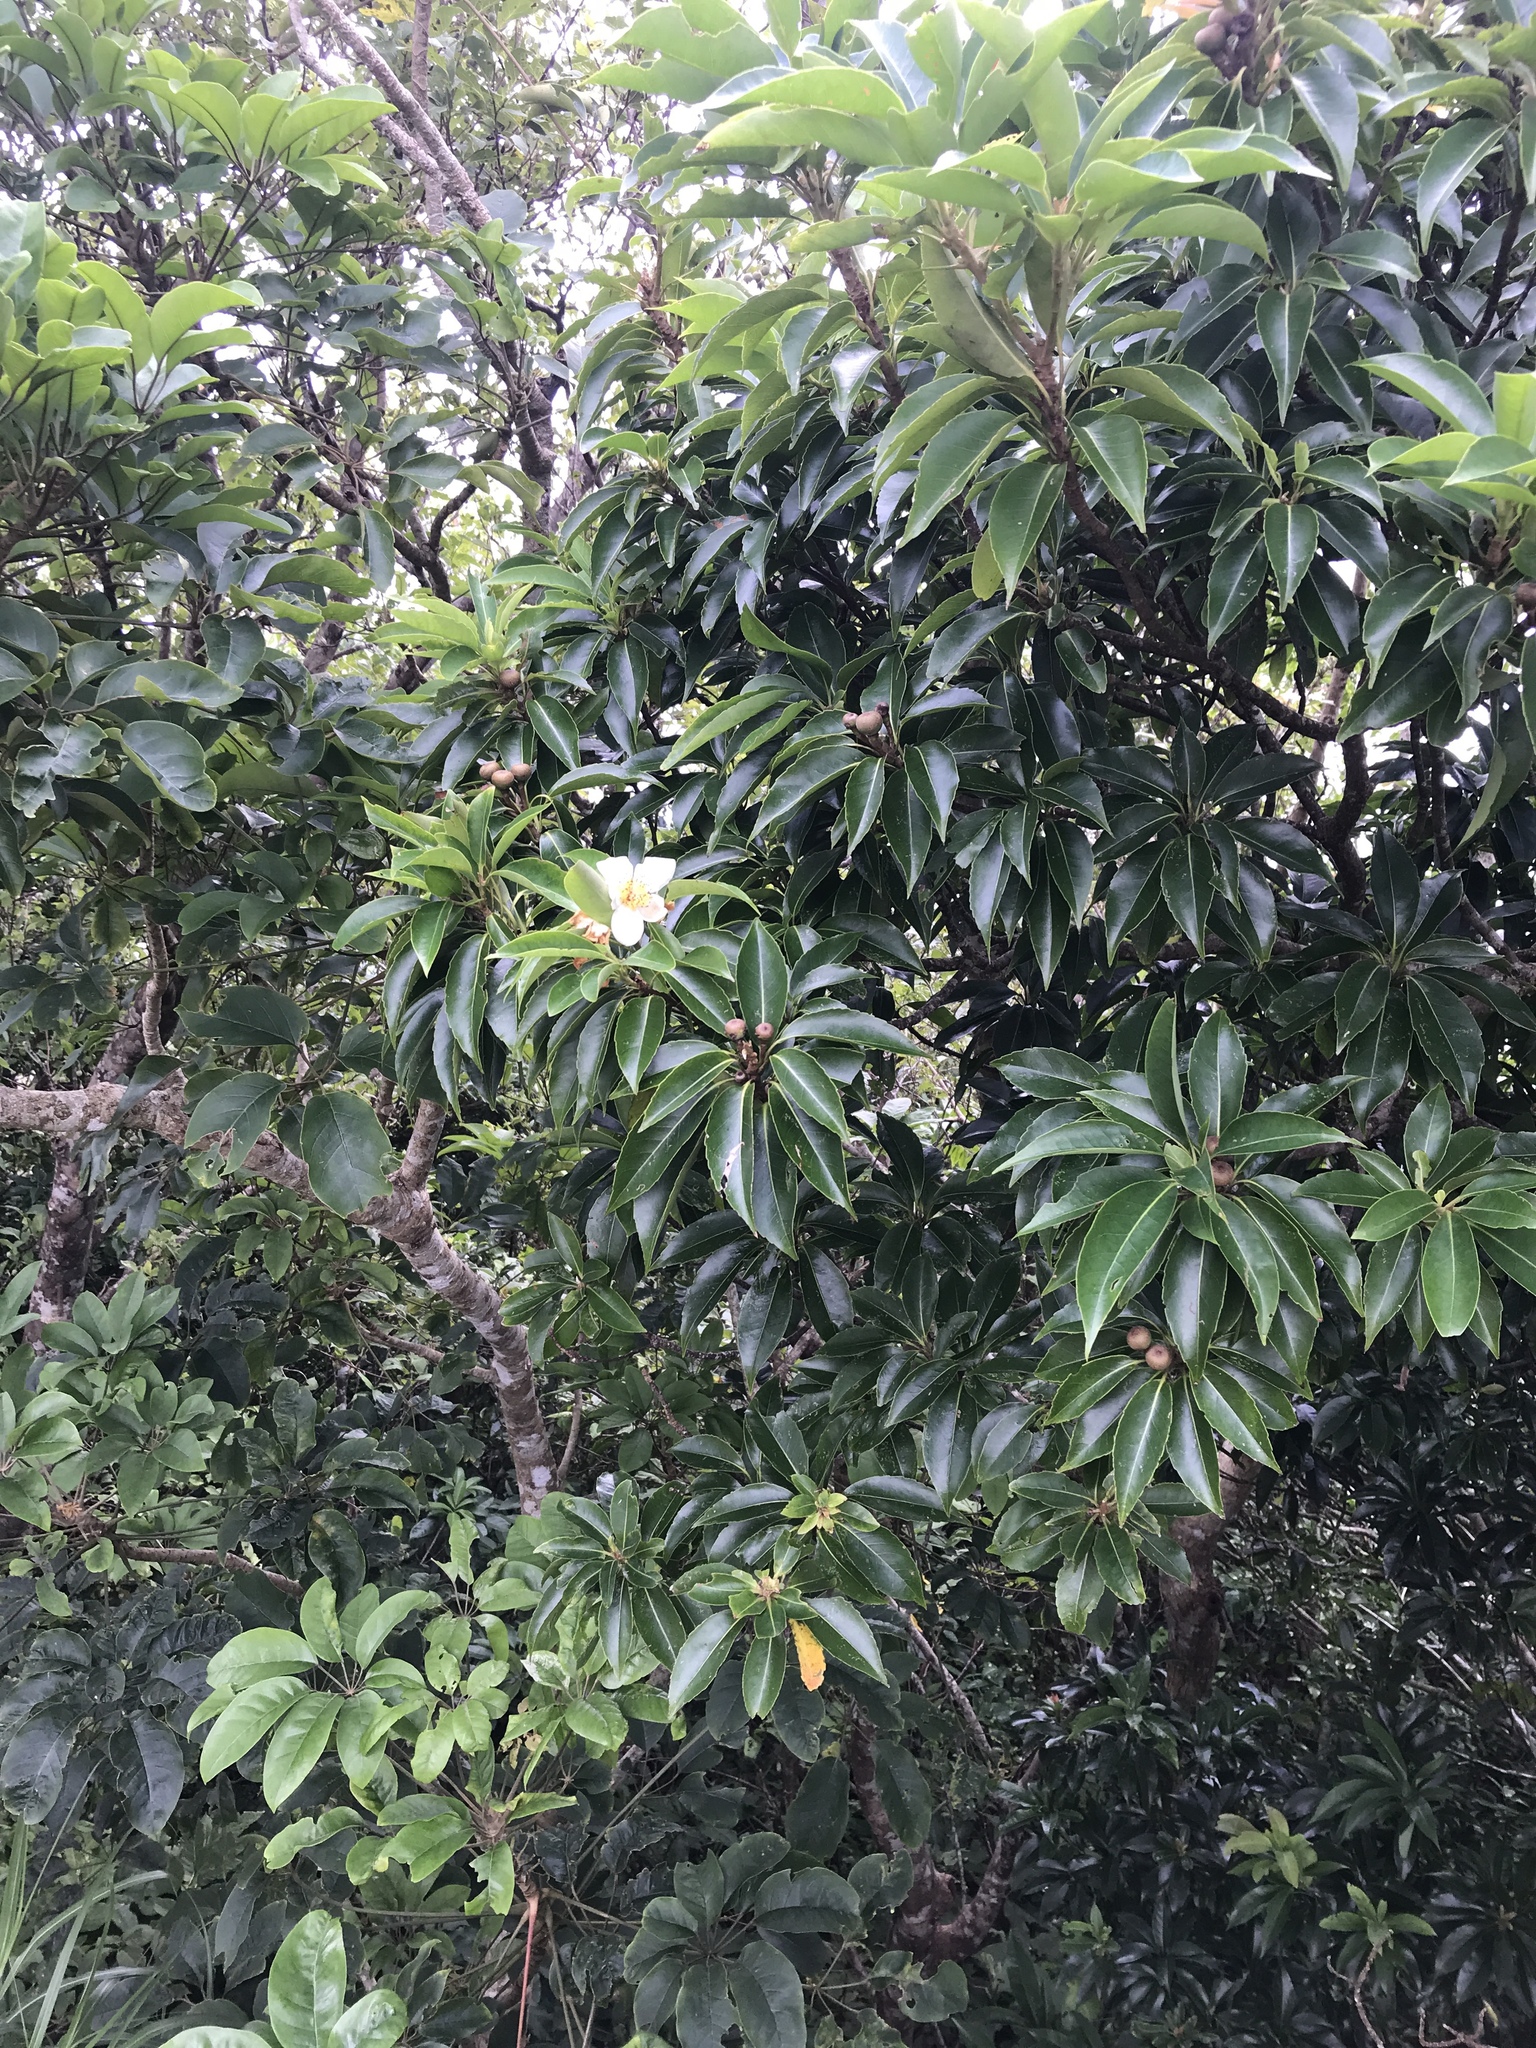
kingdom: Plantae
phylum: Tracheophyta
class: Magnoliopsida
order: Ericales
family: Theaceae
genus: Schima
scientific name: Schima wallichii
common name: Schima
